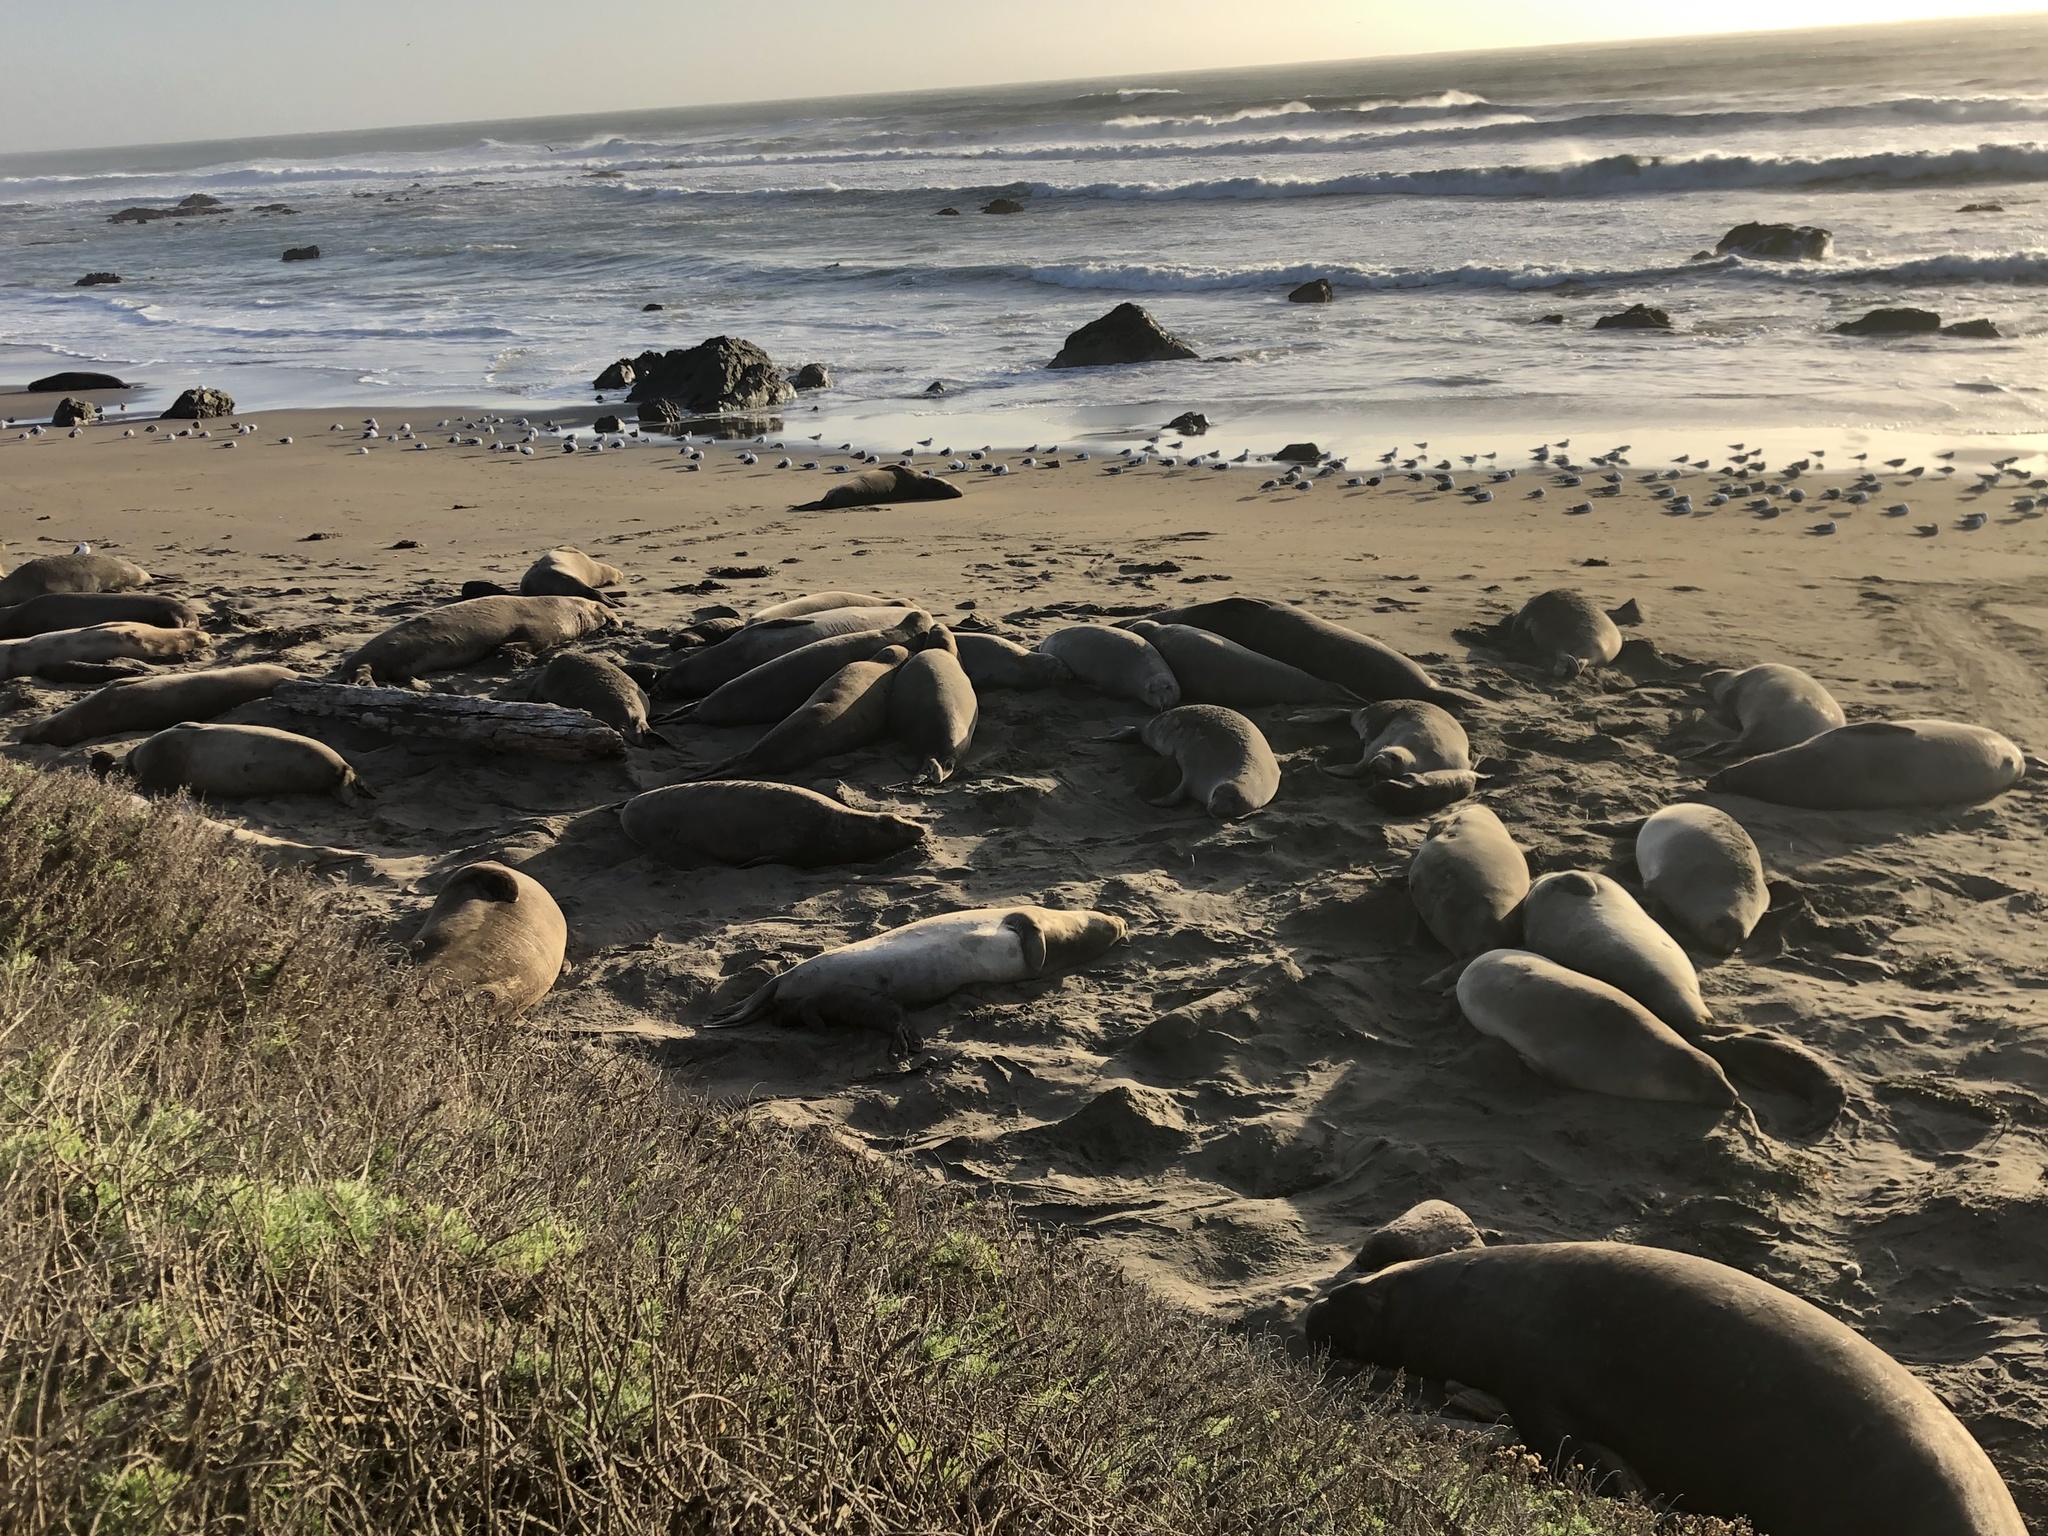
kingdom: Animalia
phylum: Chordata
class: Mammalia
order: Carnivora
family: Phocidae
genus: Mirounga
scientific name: Mirounga angustirostris
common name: Northern elephant seal
